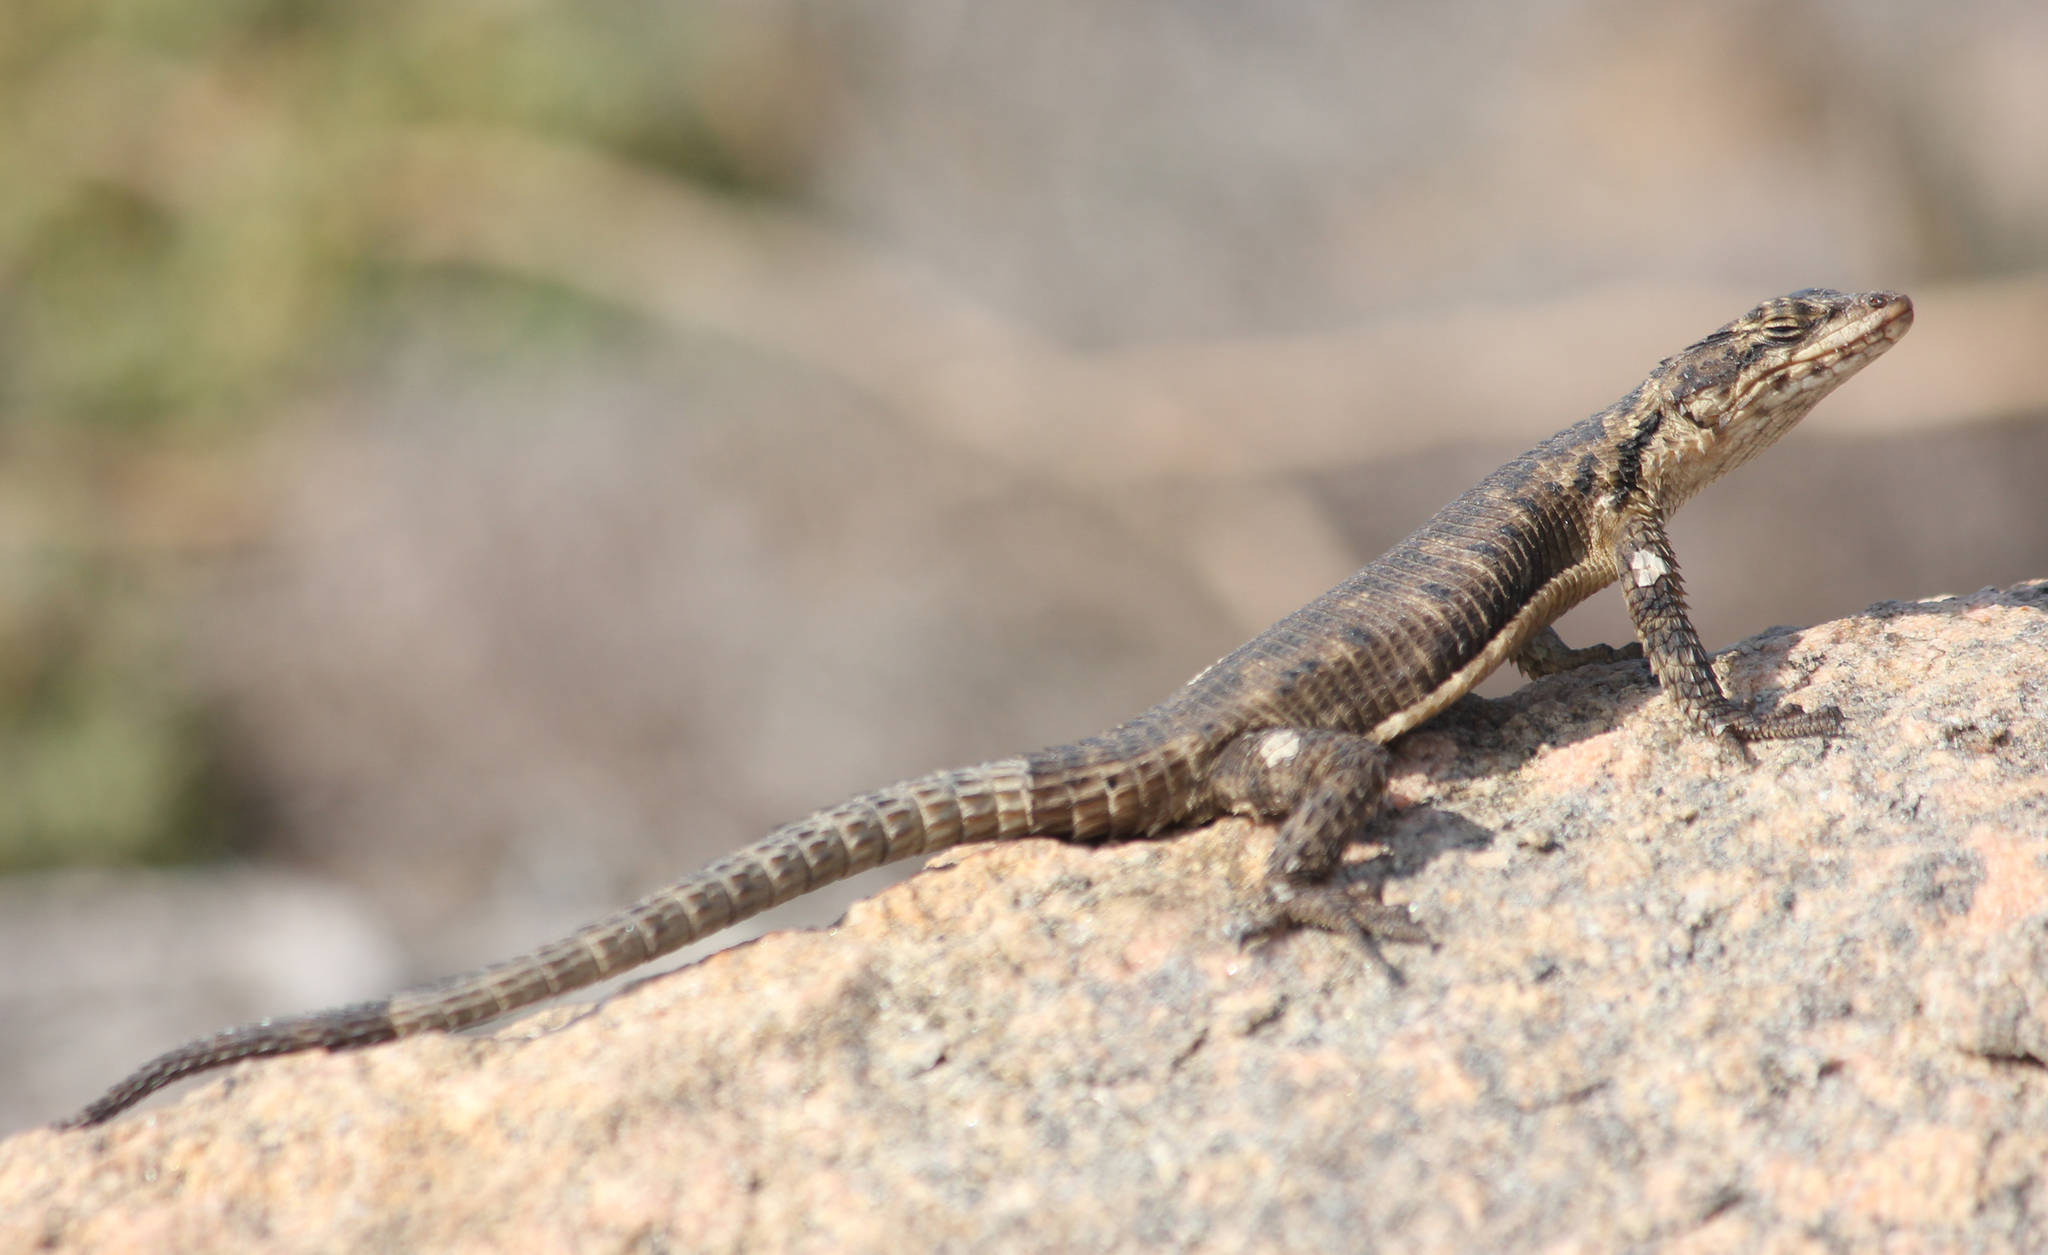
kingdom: Animalia
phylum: Chordata
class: Squamata
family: Cordylidae
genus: Karusasaurus
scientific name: Karusasaurus polyzonus
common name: Karoo girdled lizard
